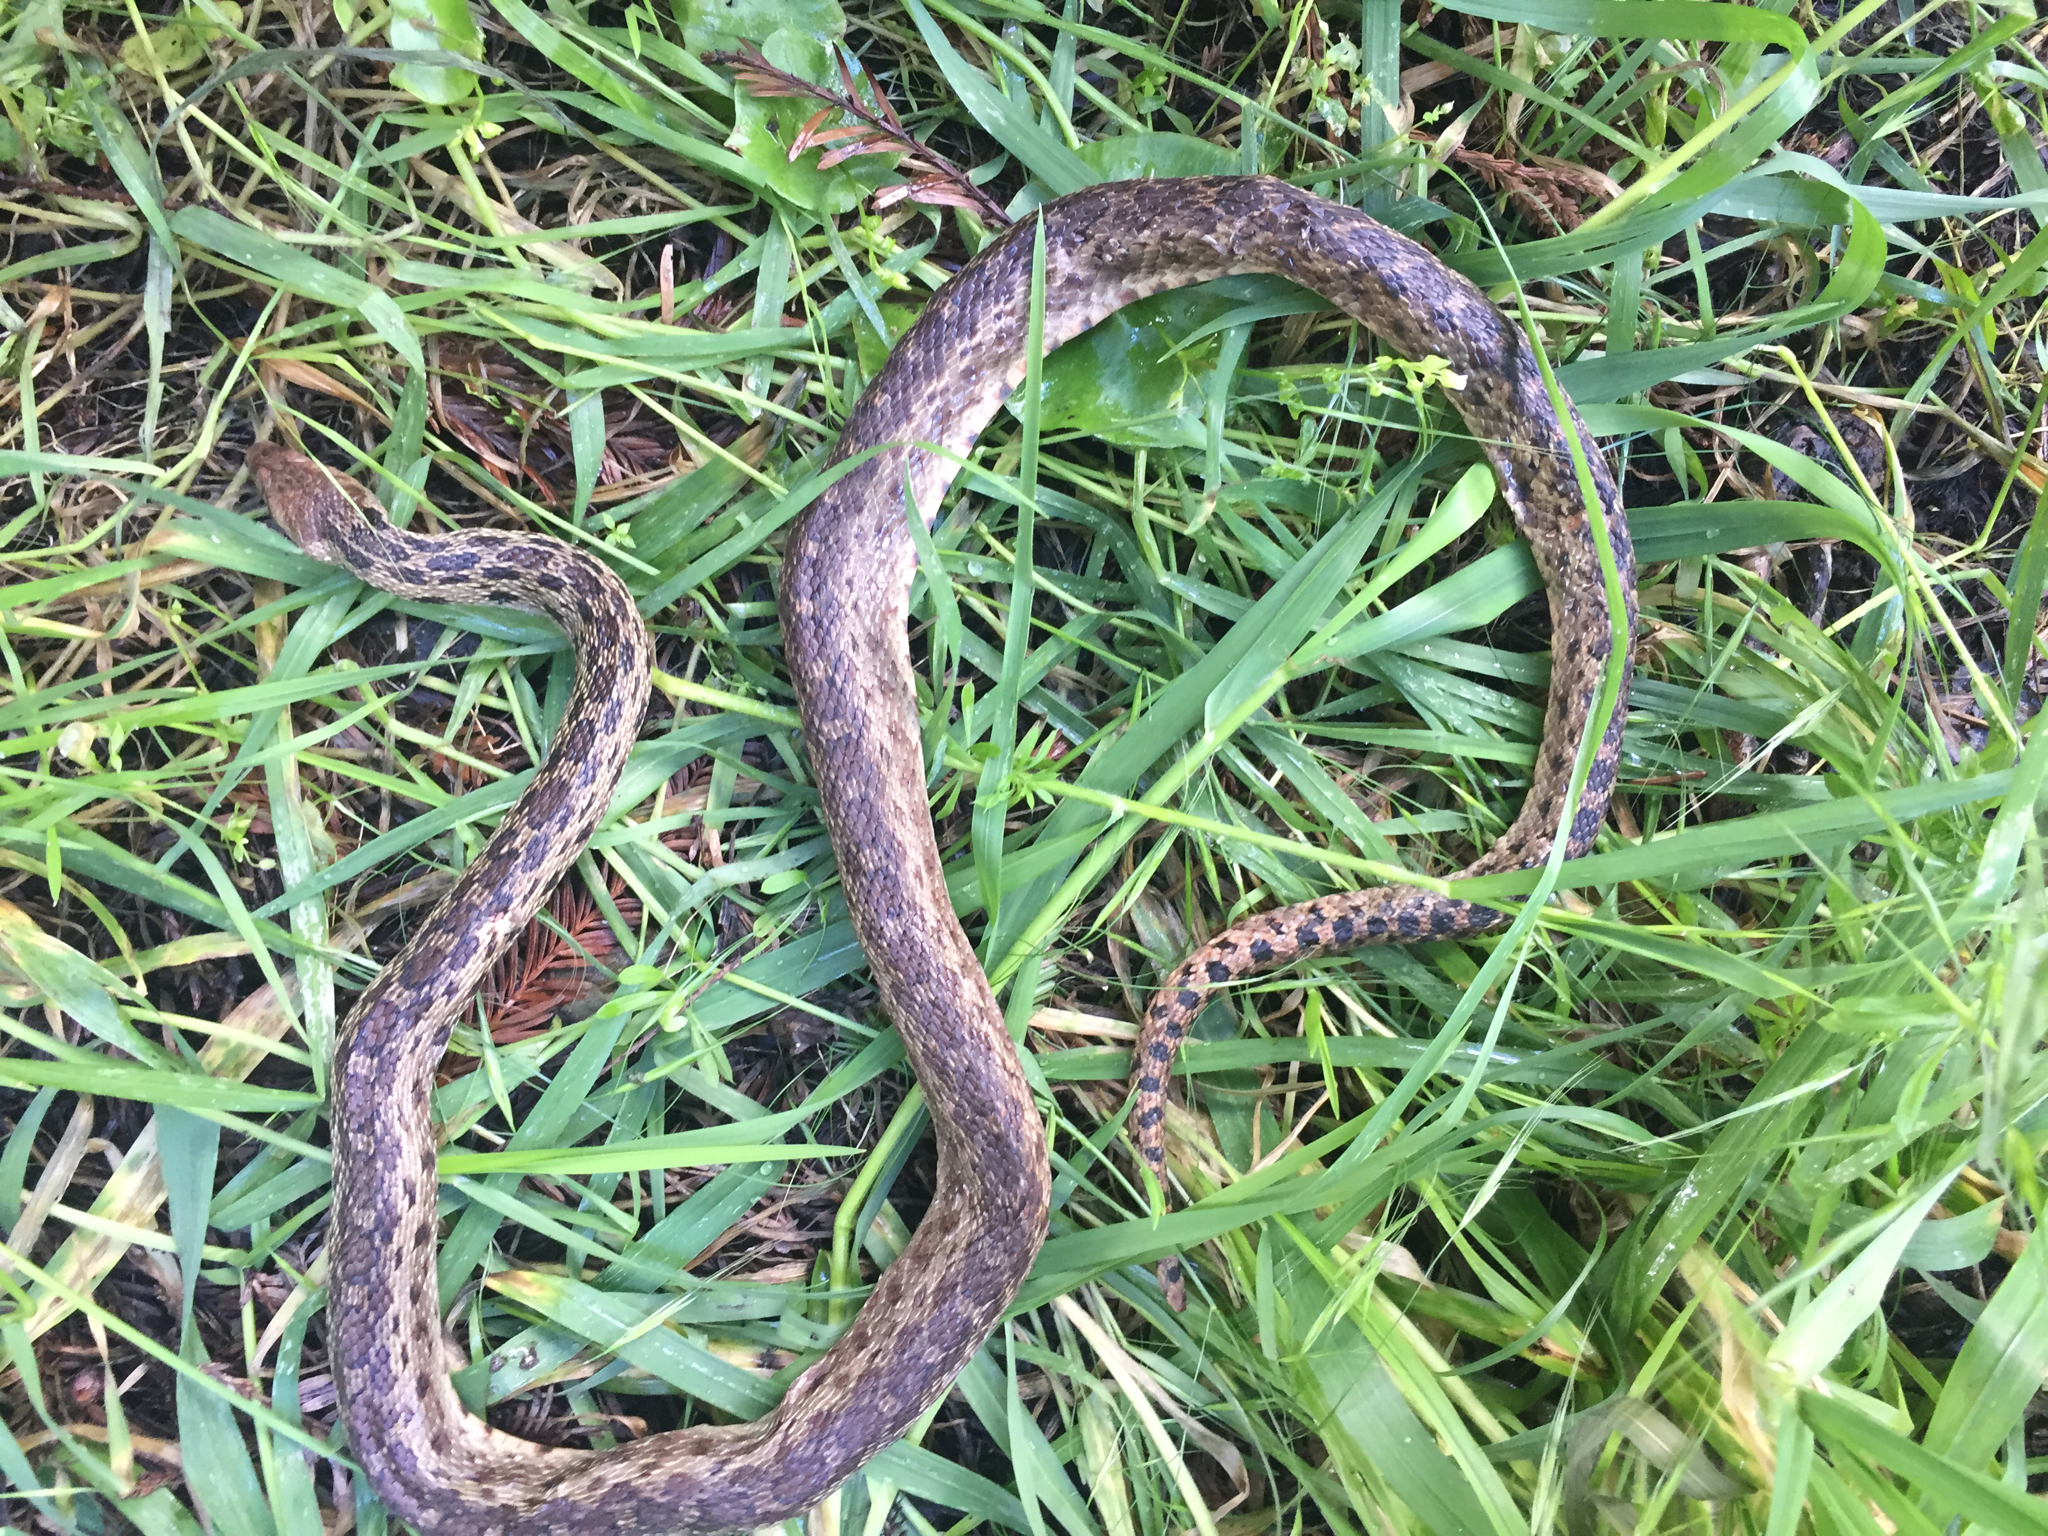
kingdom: Animalia
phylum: Chordata
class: Squamata
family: Colubridae
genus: Pituophis
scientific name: Pituophis catenifer
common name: Gopher snake
